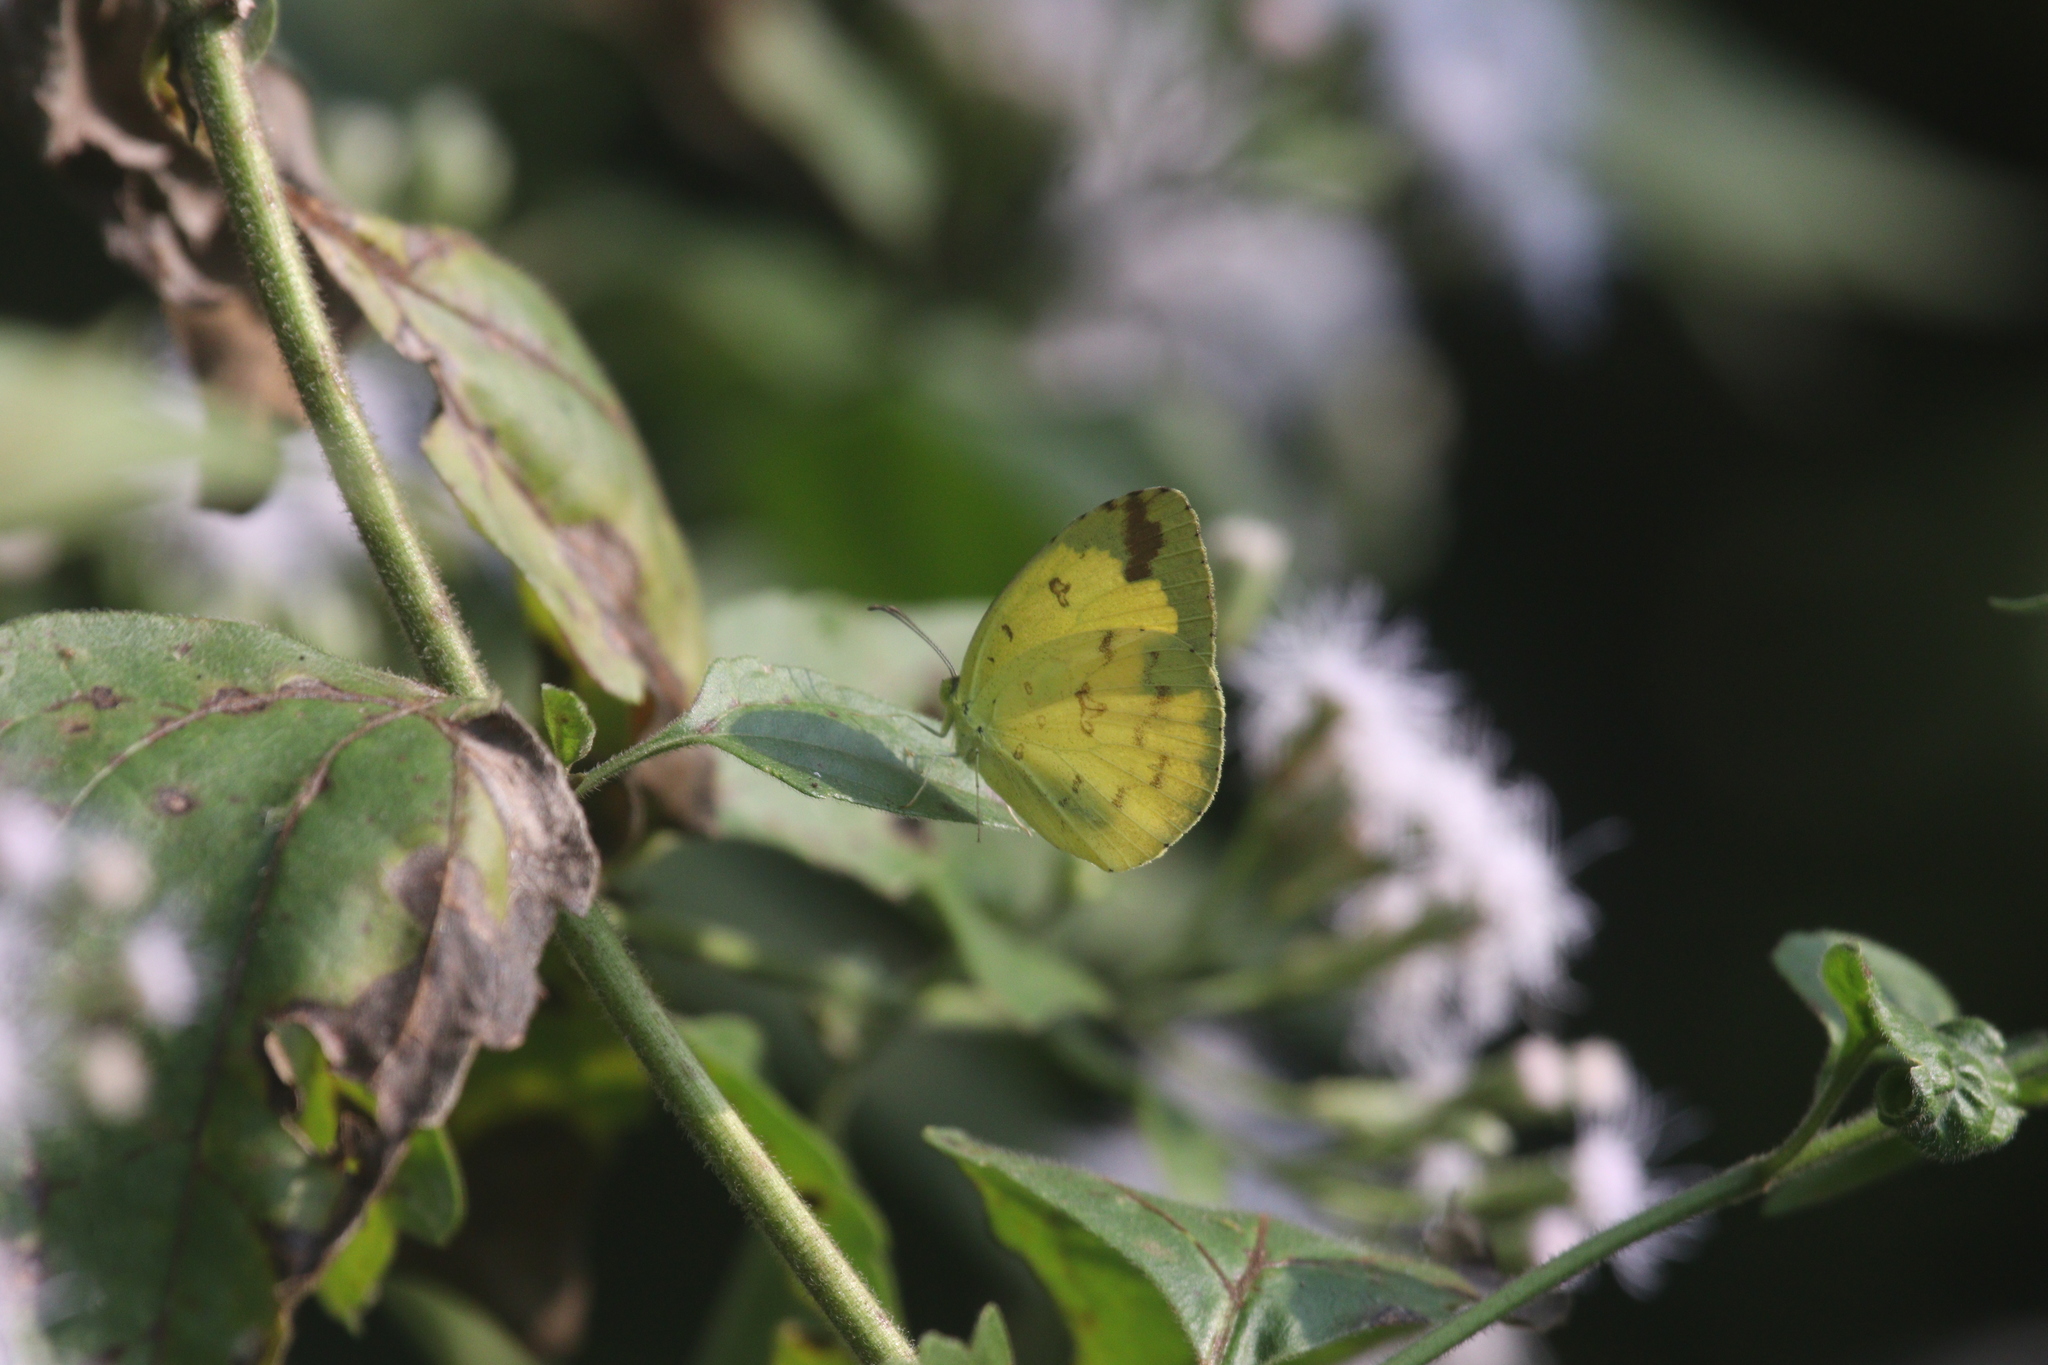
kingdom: Animalia
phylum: Arthropoda
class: Insecta
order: Lepidoptera
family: Pieridae
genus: Eurema
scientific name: Eurema hecabe
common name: Pale grass yellow
